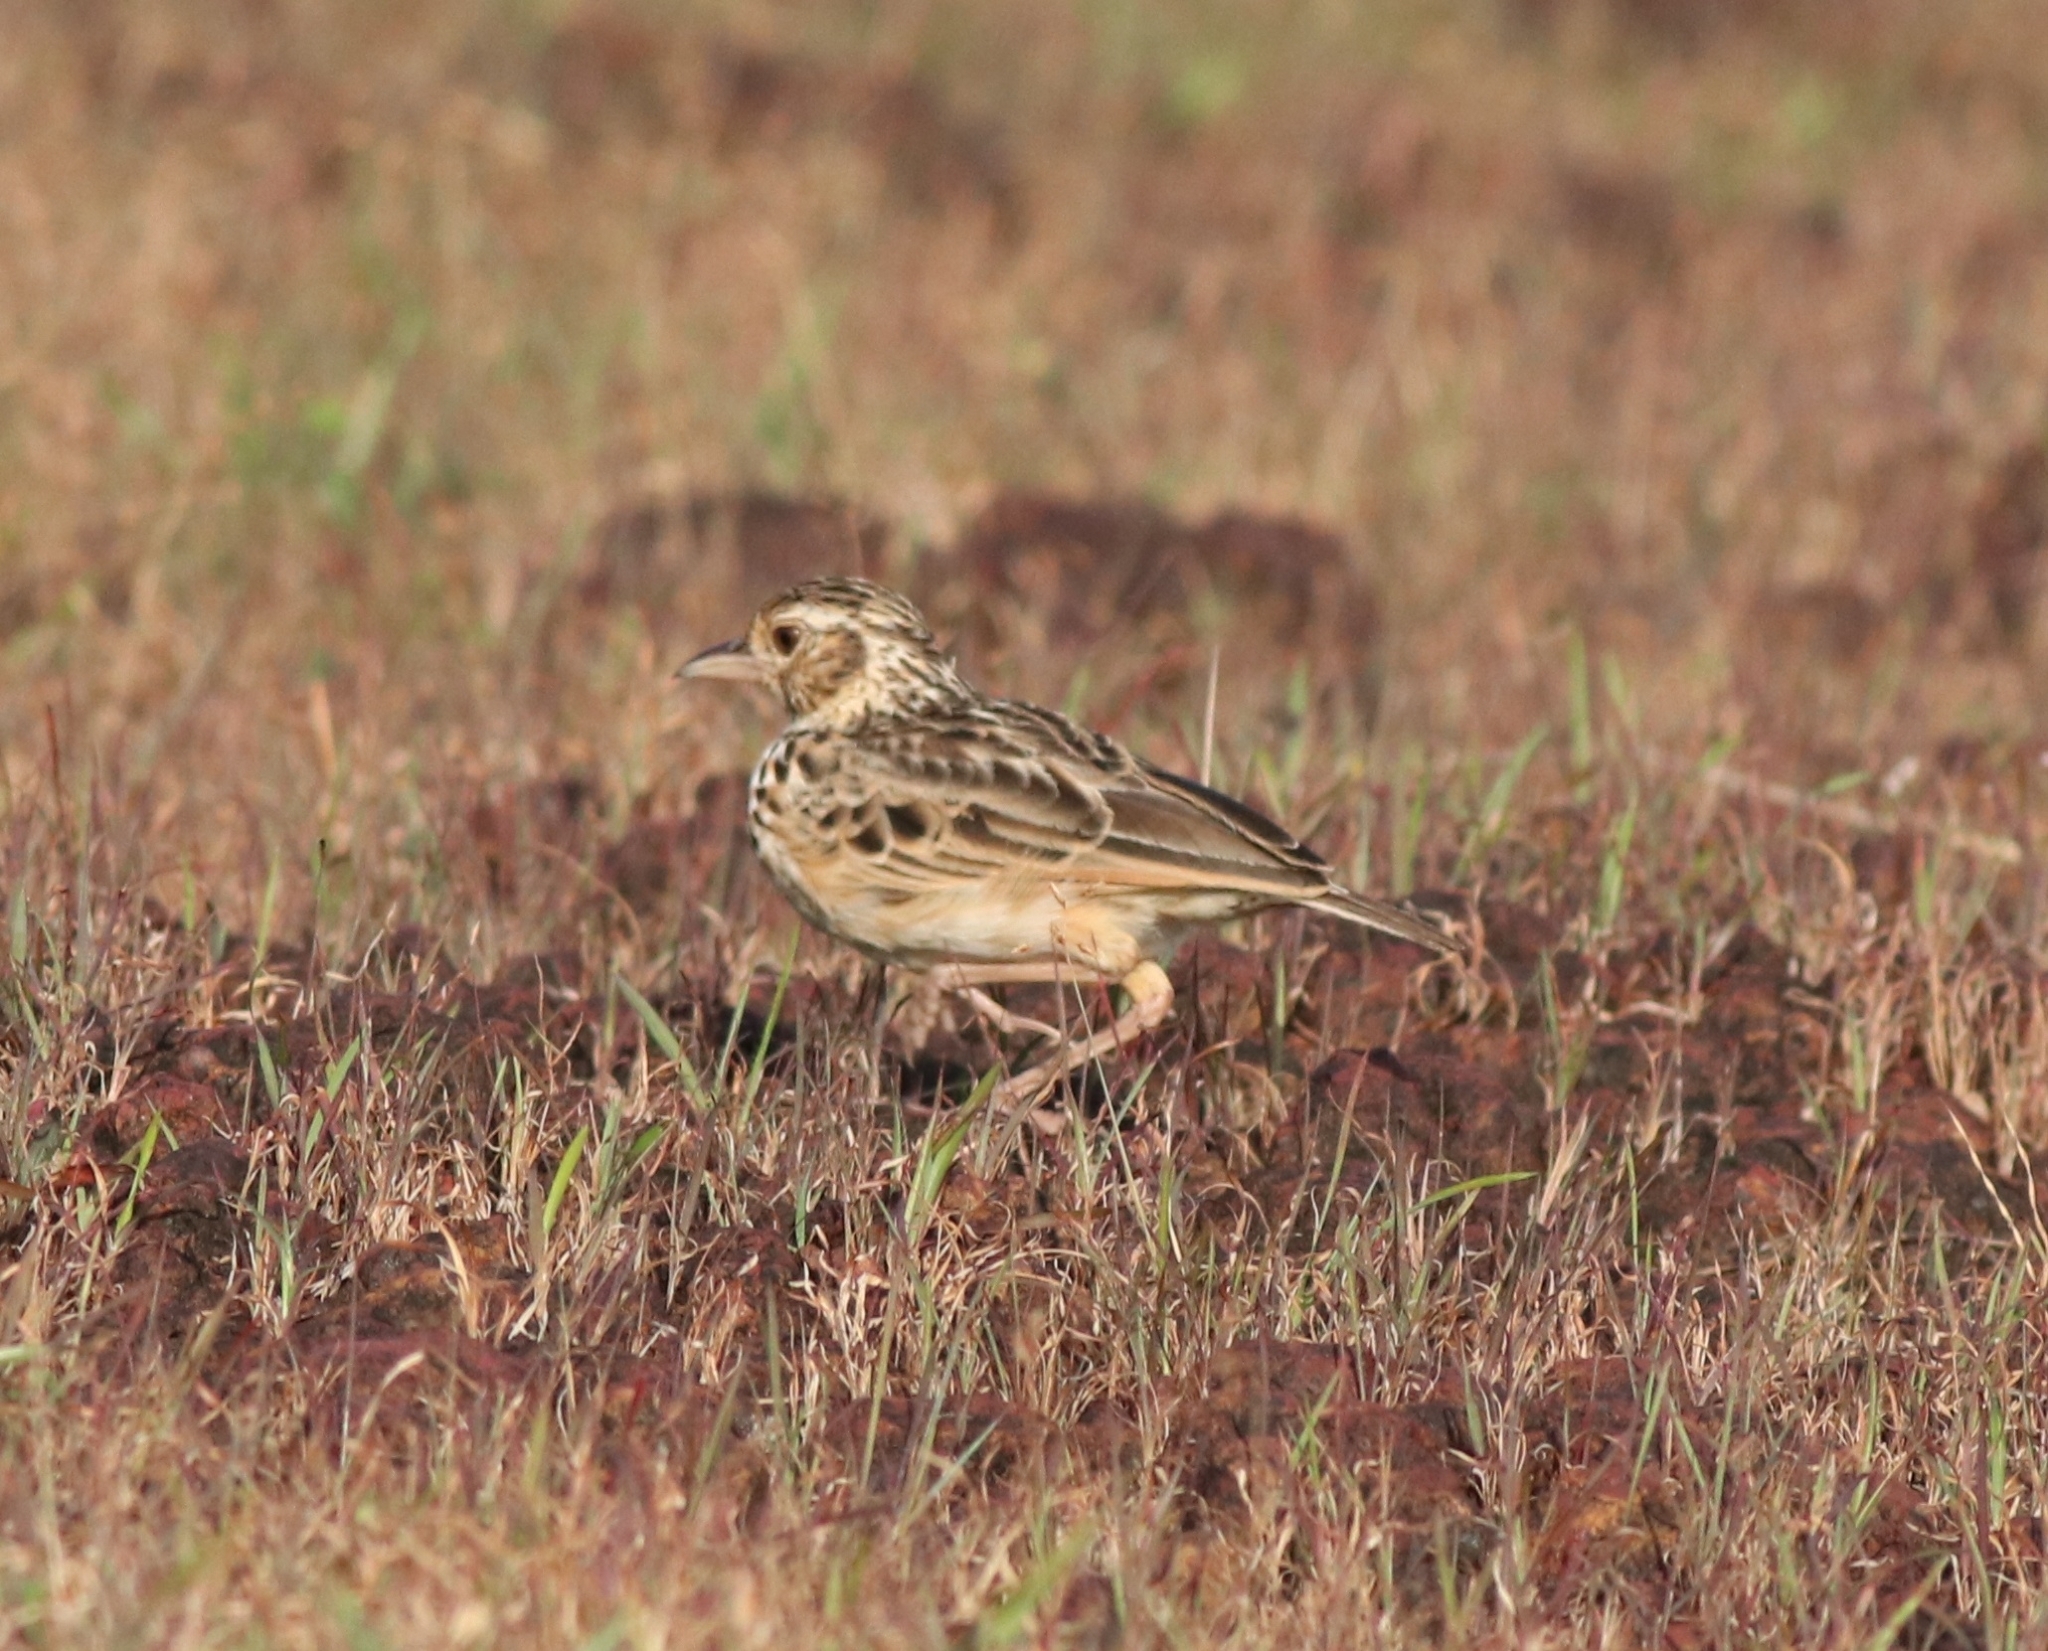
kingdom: Animalia
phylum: Chordata
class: Aves
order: Passeriformes
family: Alaudidae
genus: Mirafra
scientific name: Mirafra affinis
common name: Jerdon's bushlark
